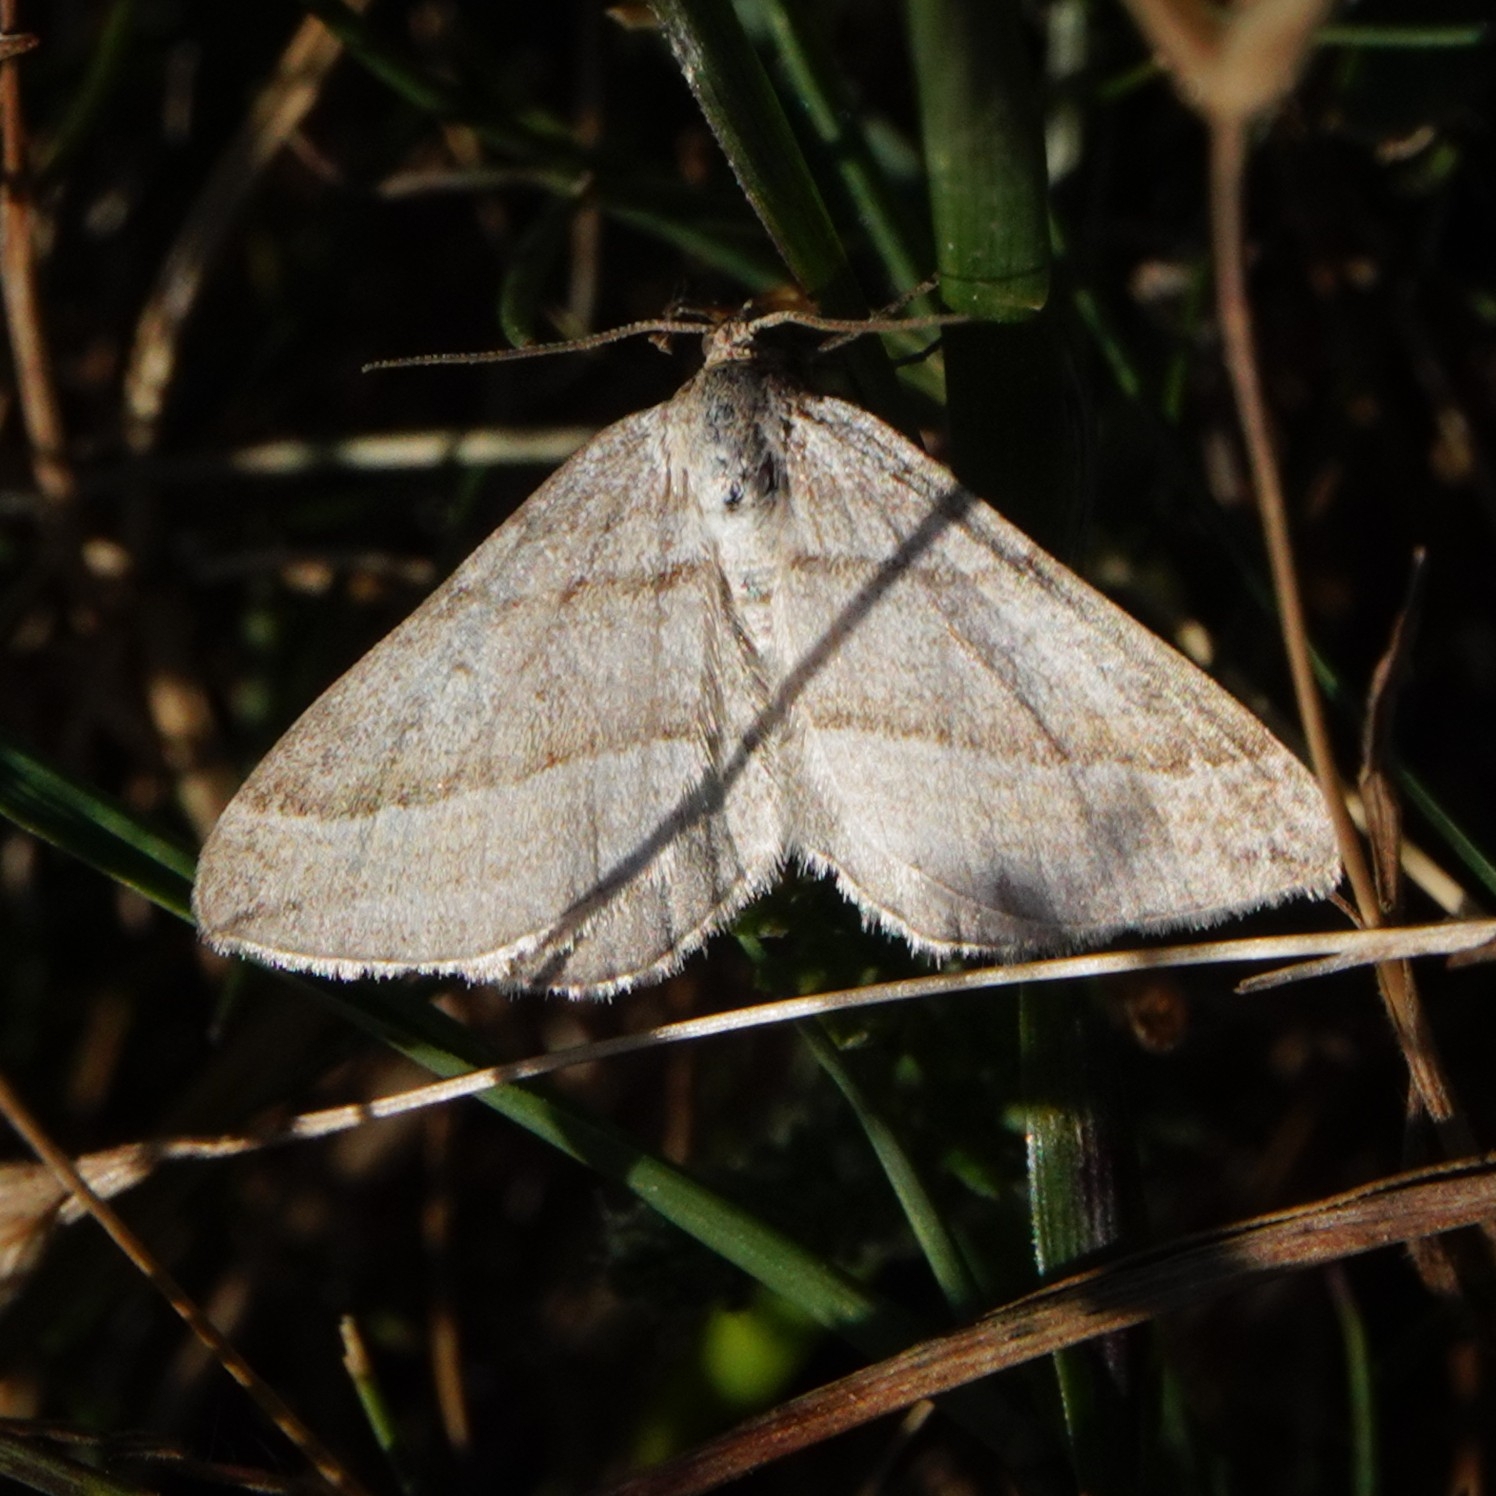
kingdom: Animalia
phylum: Arthropoda
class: Insecta
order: Lepidoptera
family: Geometridae
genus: Scotopteryx
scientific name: Scotopteryx mucronata
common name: Lead belle
